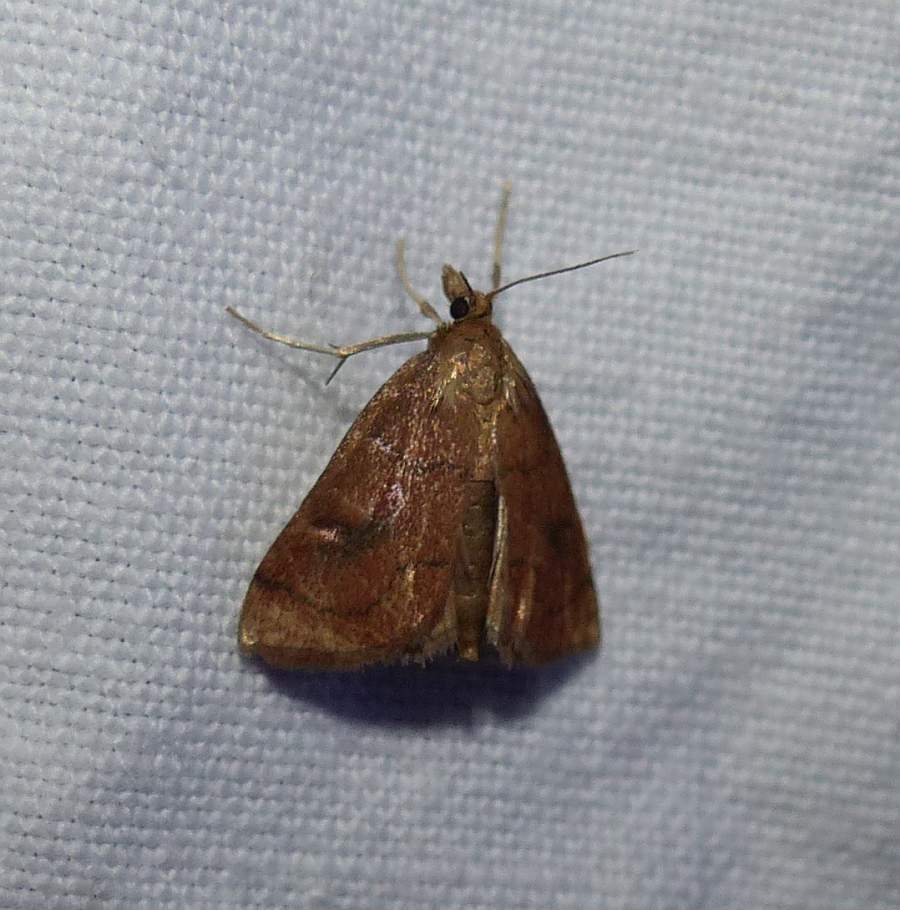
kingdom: Animalia
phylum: Arthropoda
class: Insecta
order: Lepidoptera
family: Crambidae
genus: Fumibotys
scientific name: Fumibotys fumalis
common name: Mint root borer moth
